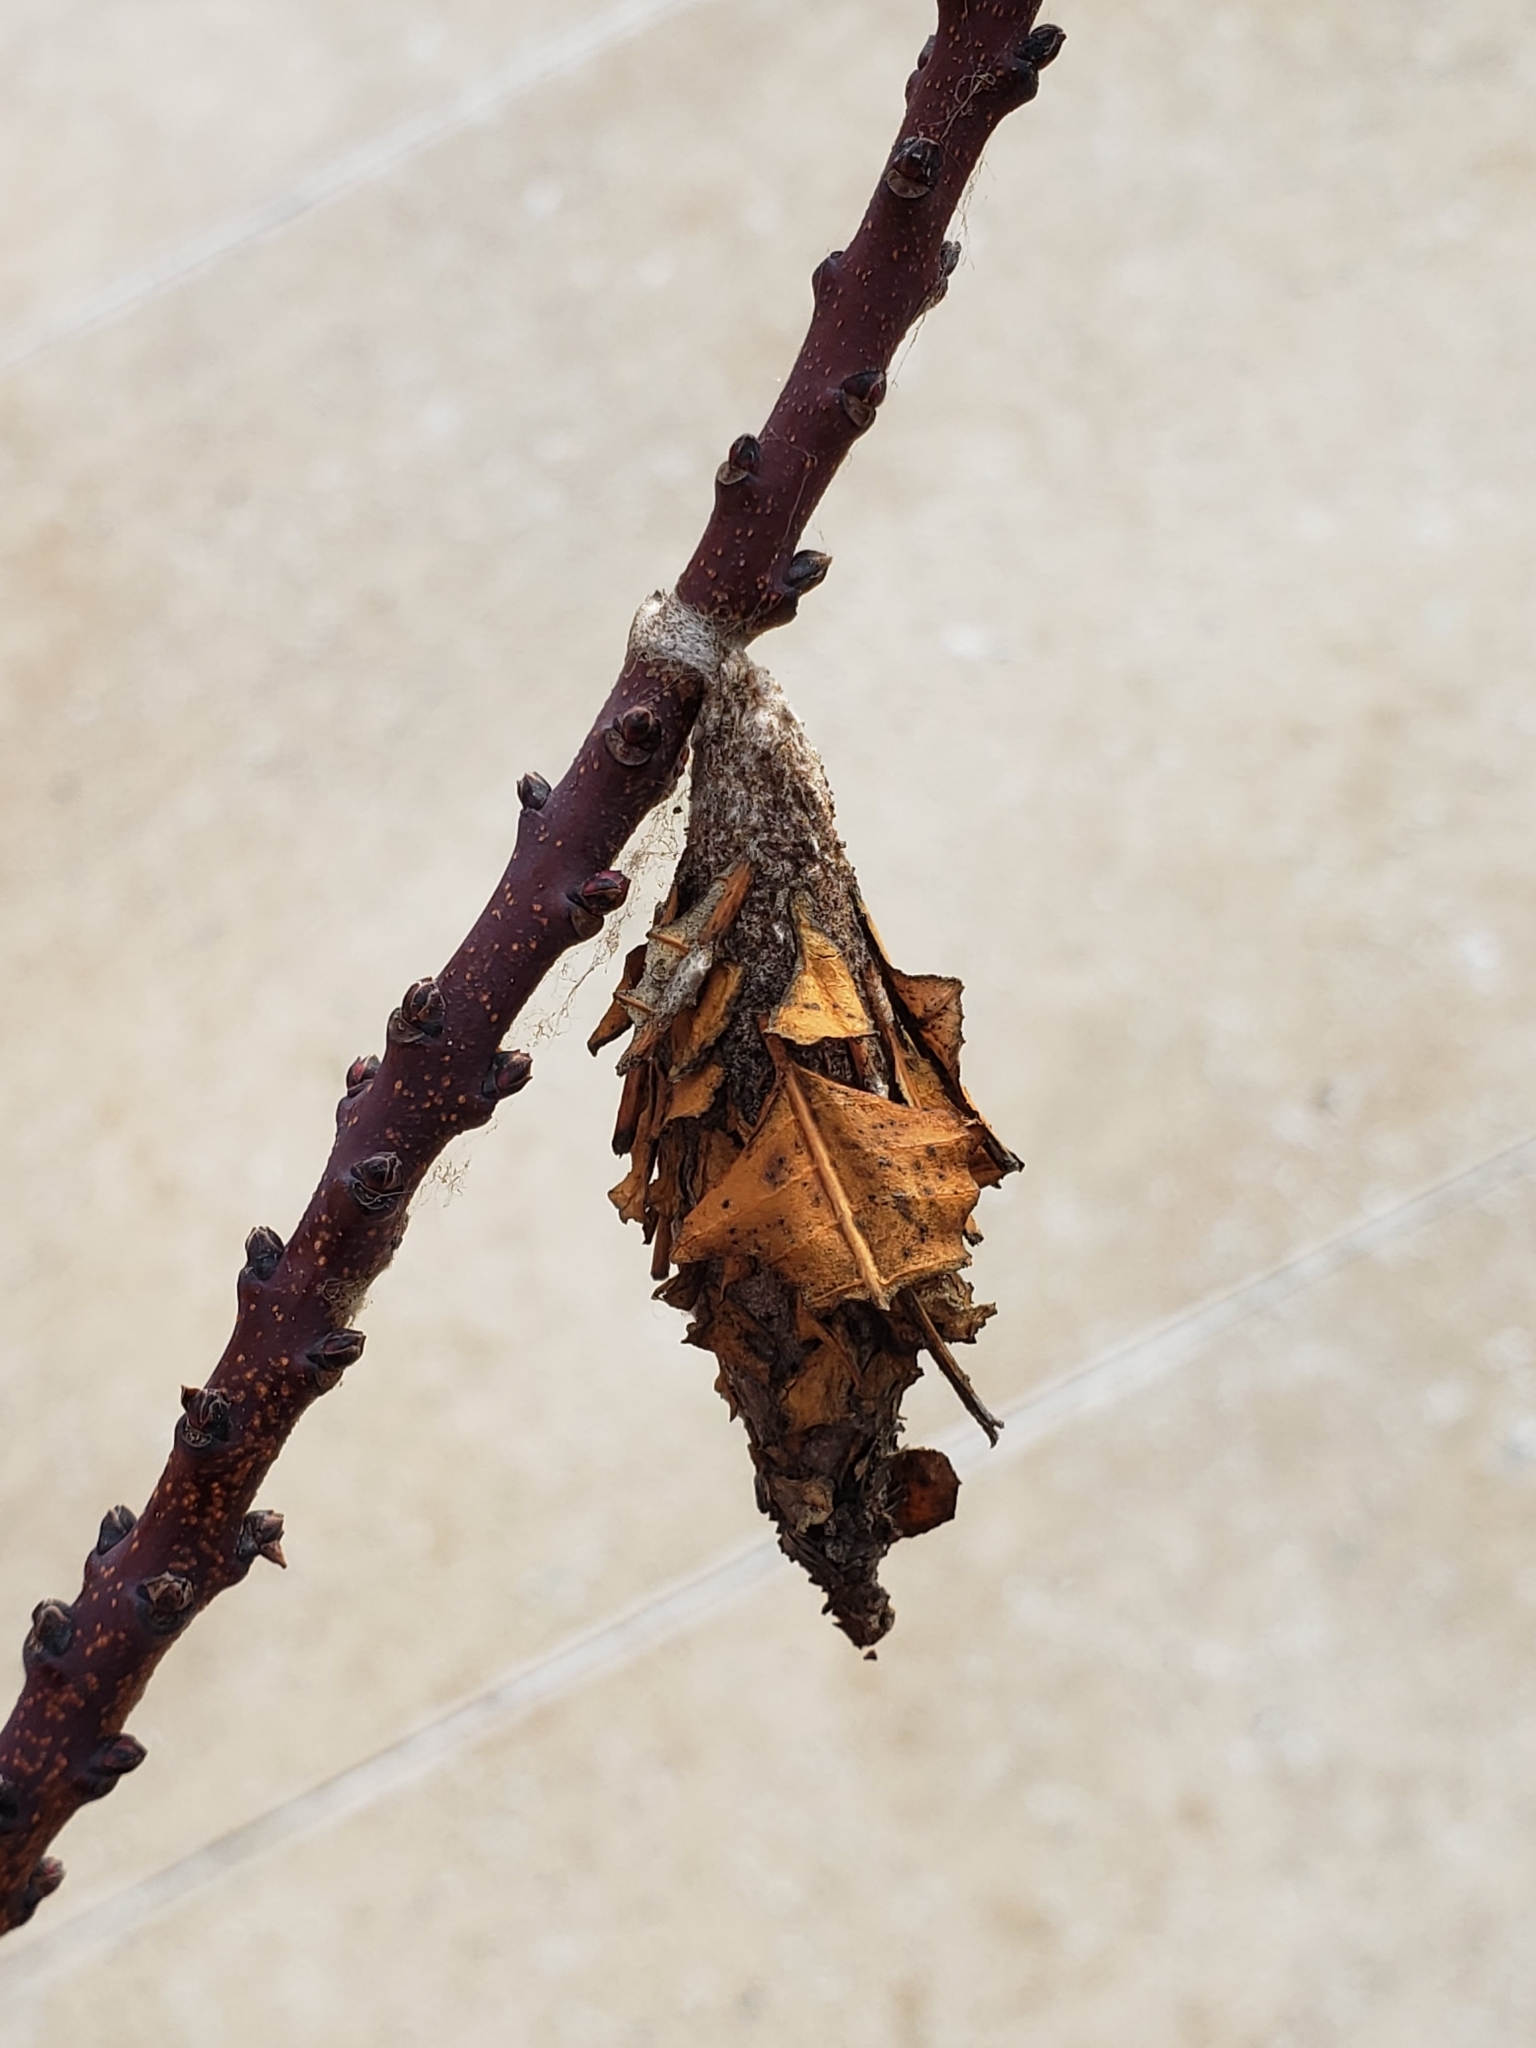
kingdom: Animalia
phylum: Arthropoda
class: Insecta
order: Lepidoptera
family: Psychidae
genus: Thyridopteryx
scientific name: Thyridopteryx ephemeraeformis
